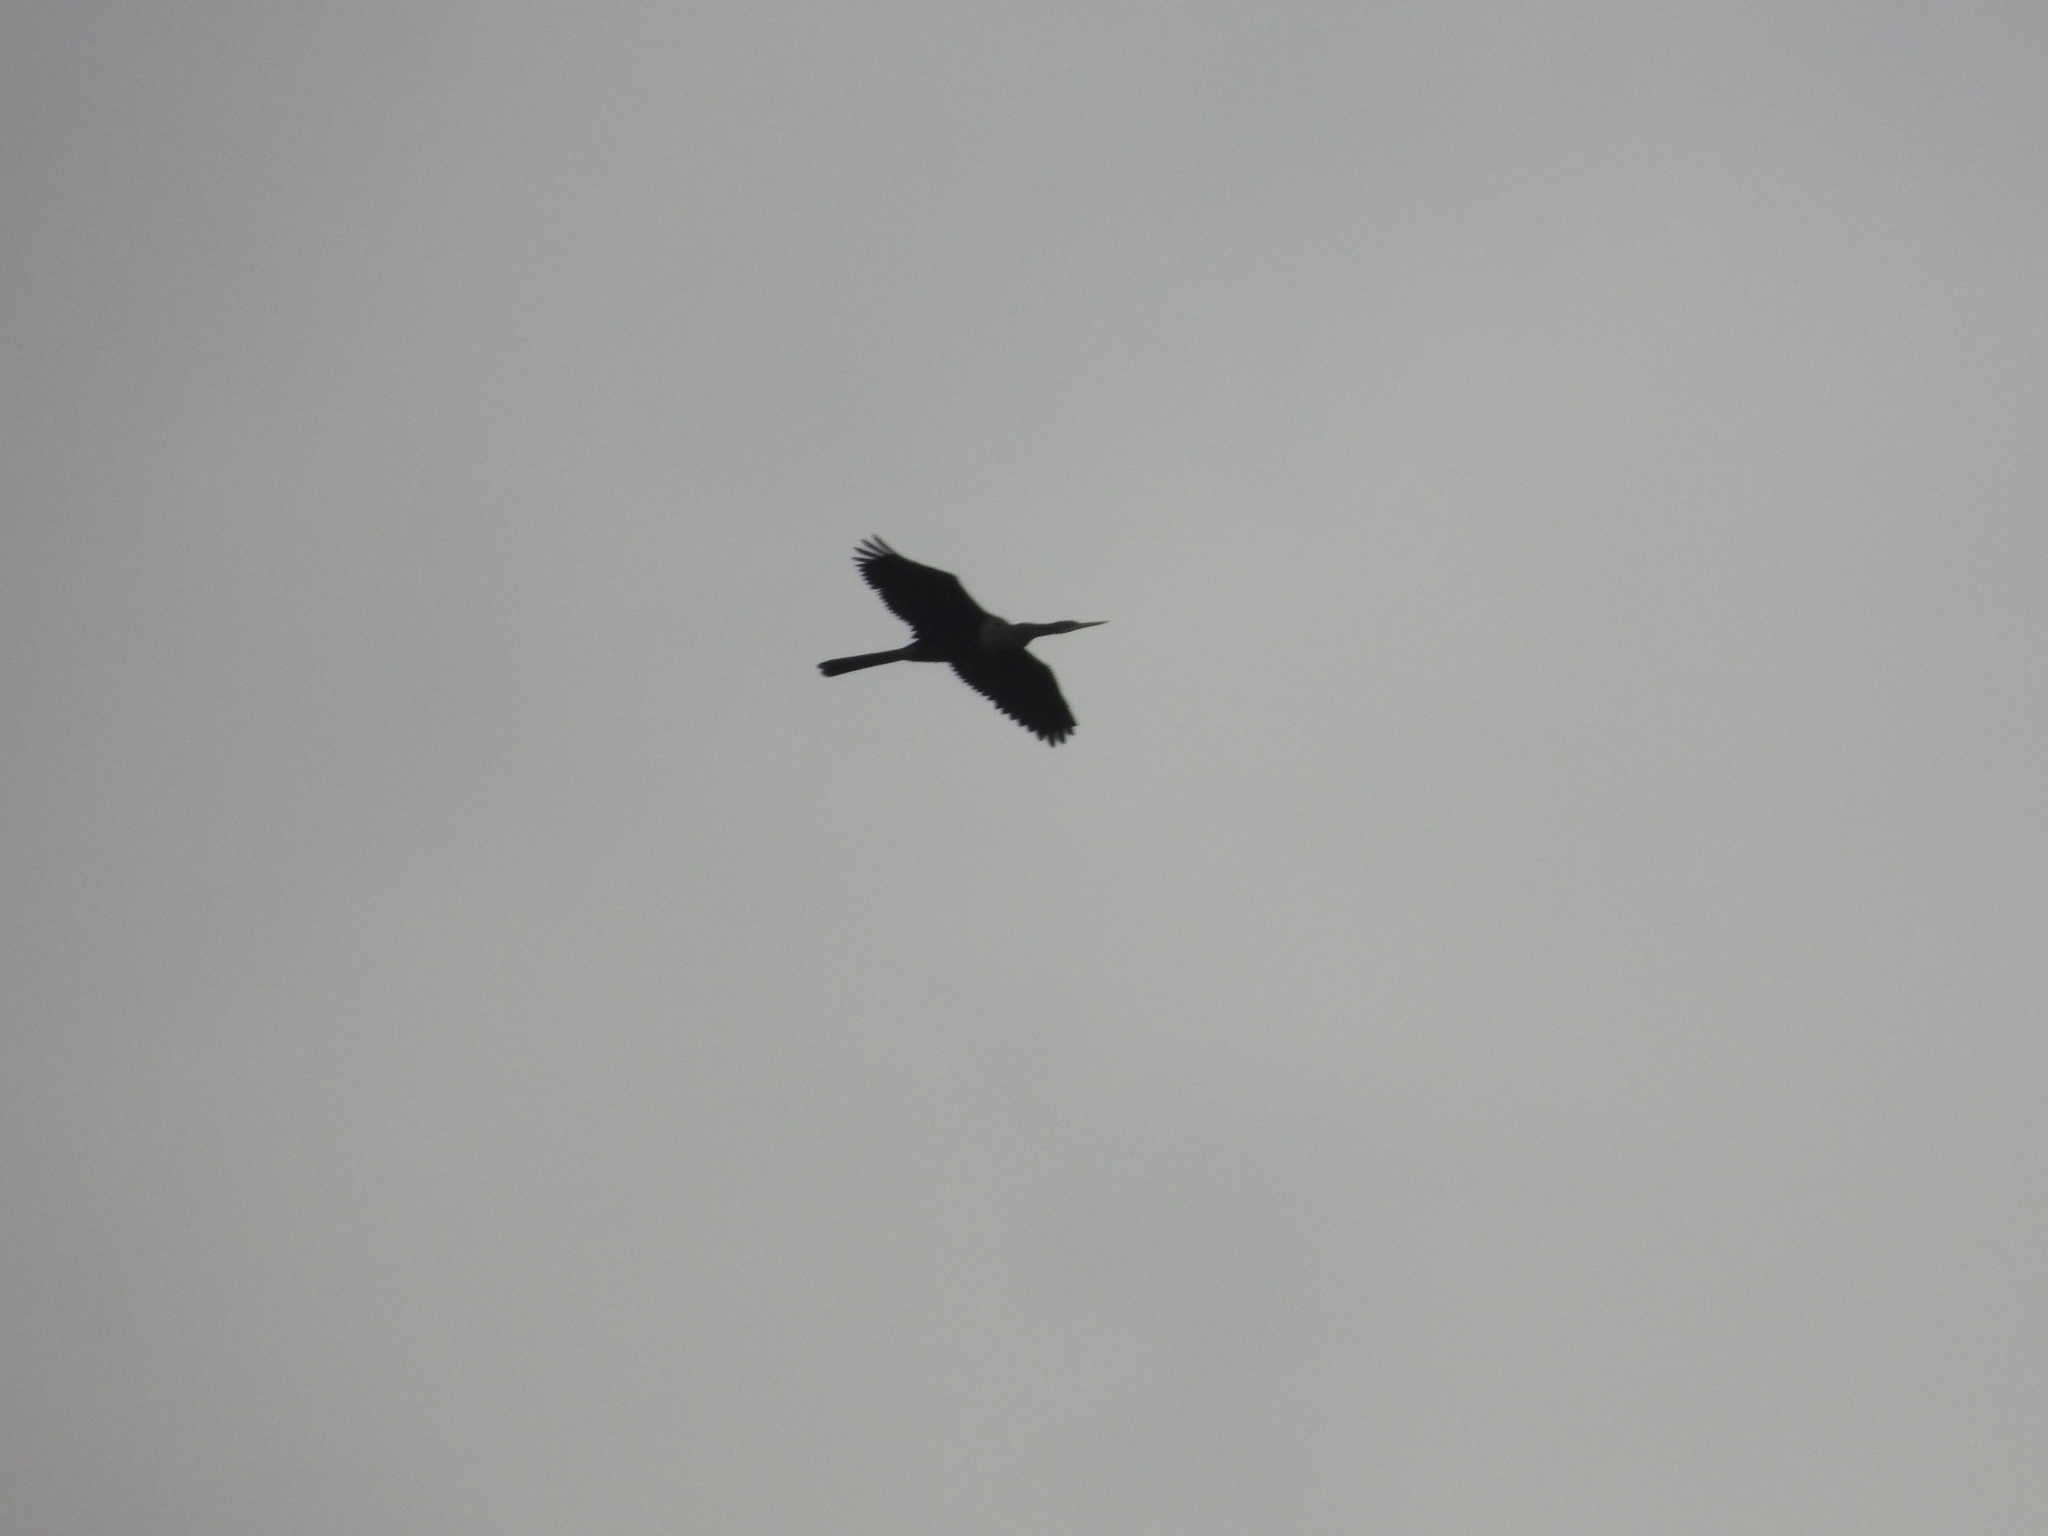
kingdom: Animalia
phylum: Chordata
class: Aves
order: Suliformes
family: Anhingidae
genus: Anhinga
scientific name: Anhinga anhinga
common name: Anhinga
